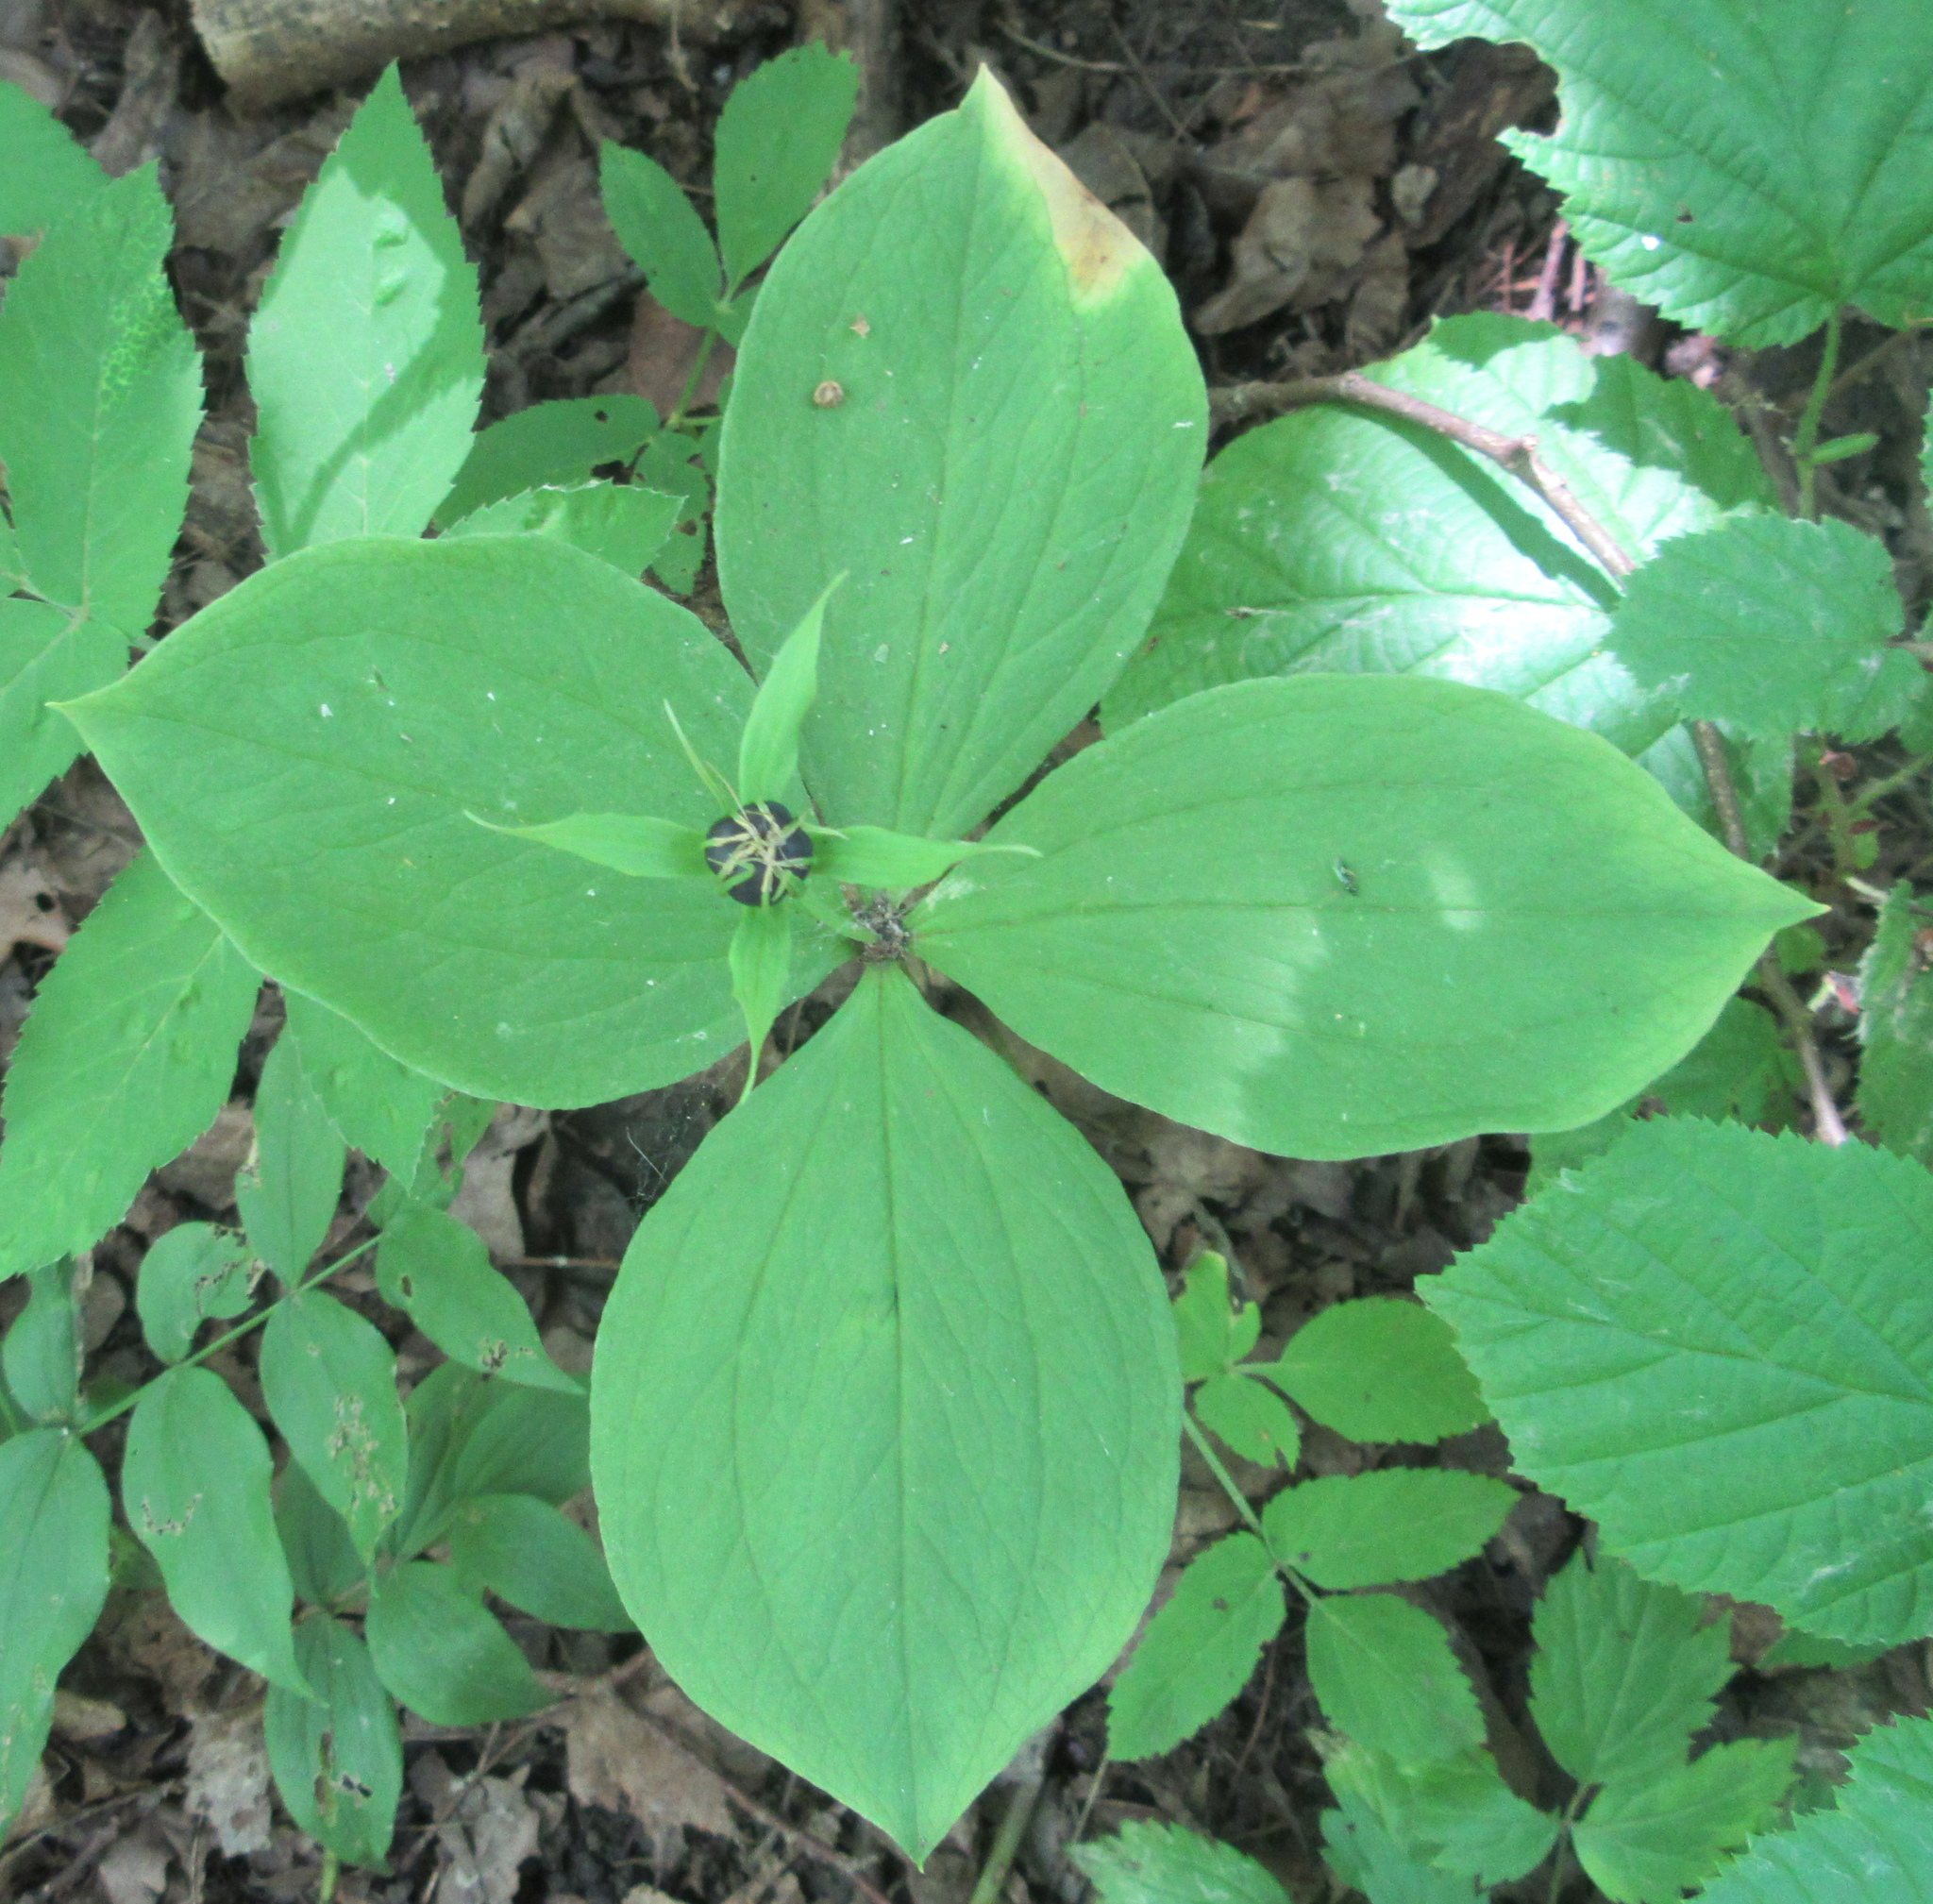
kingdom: Plantae
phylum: Tracheophyta
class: Liliopsida
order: Liliales
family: Melanthiaceae
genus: Paris
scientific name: Paris quadrifolia
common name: Herb-paris
